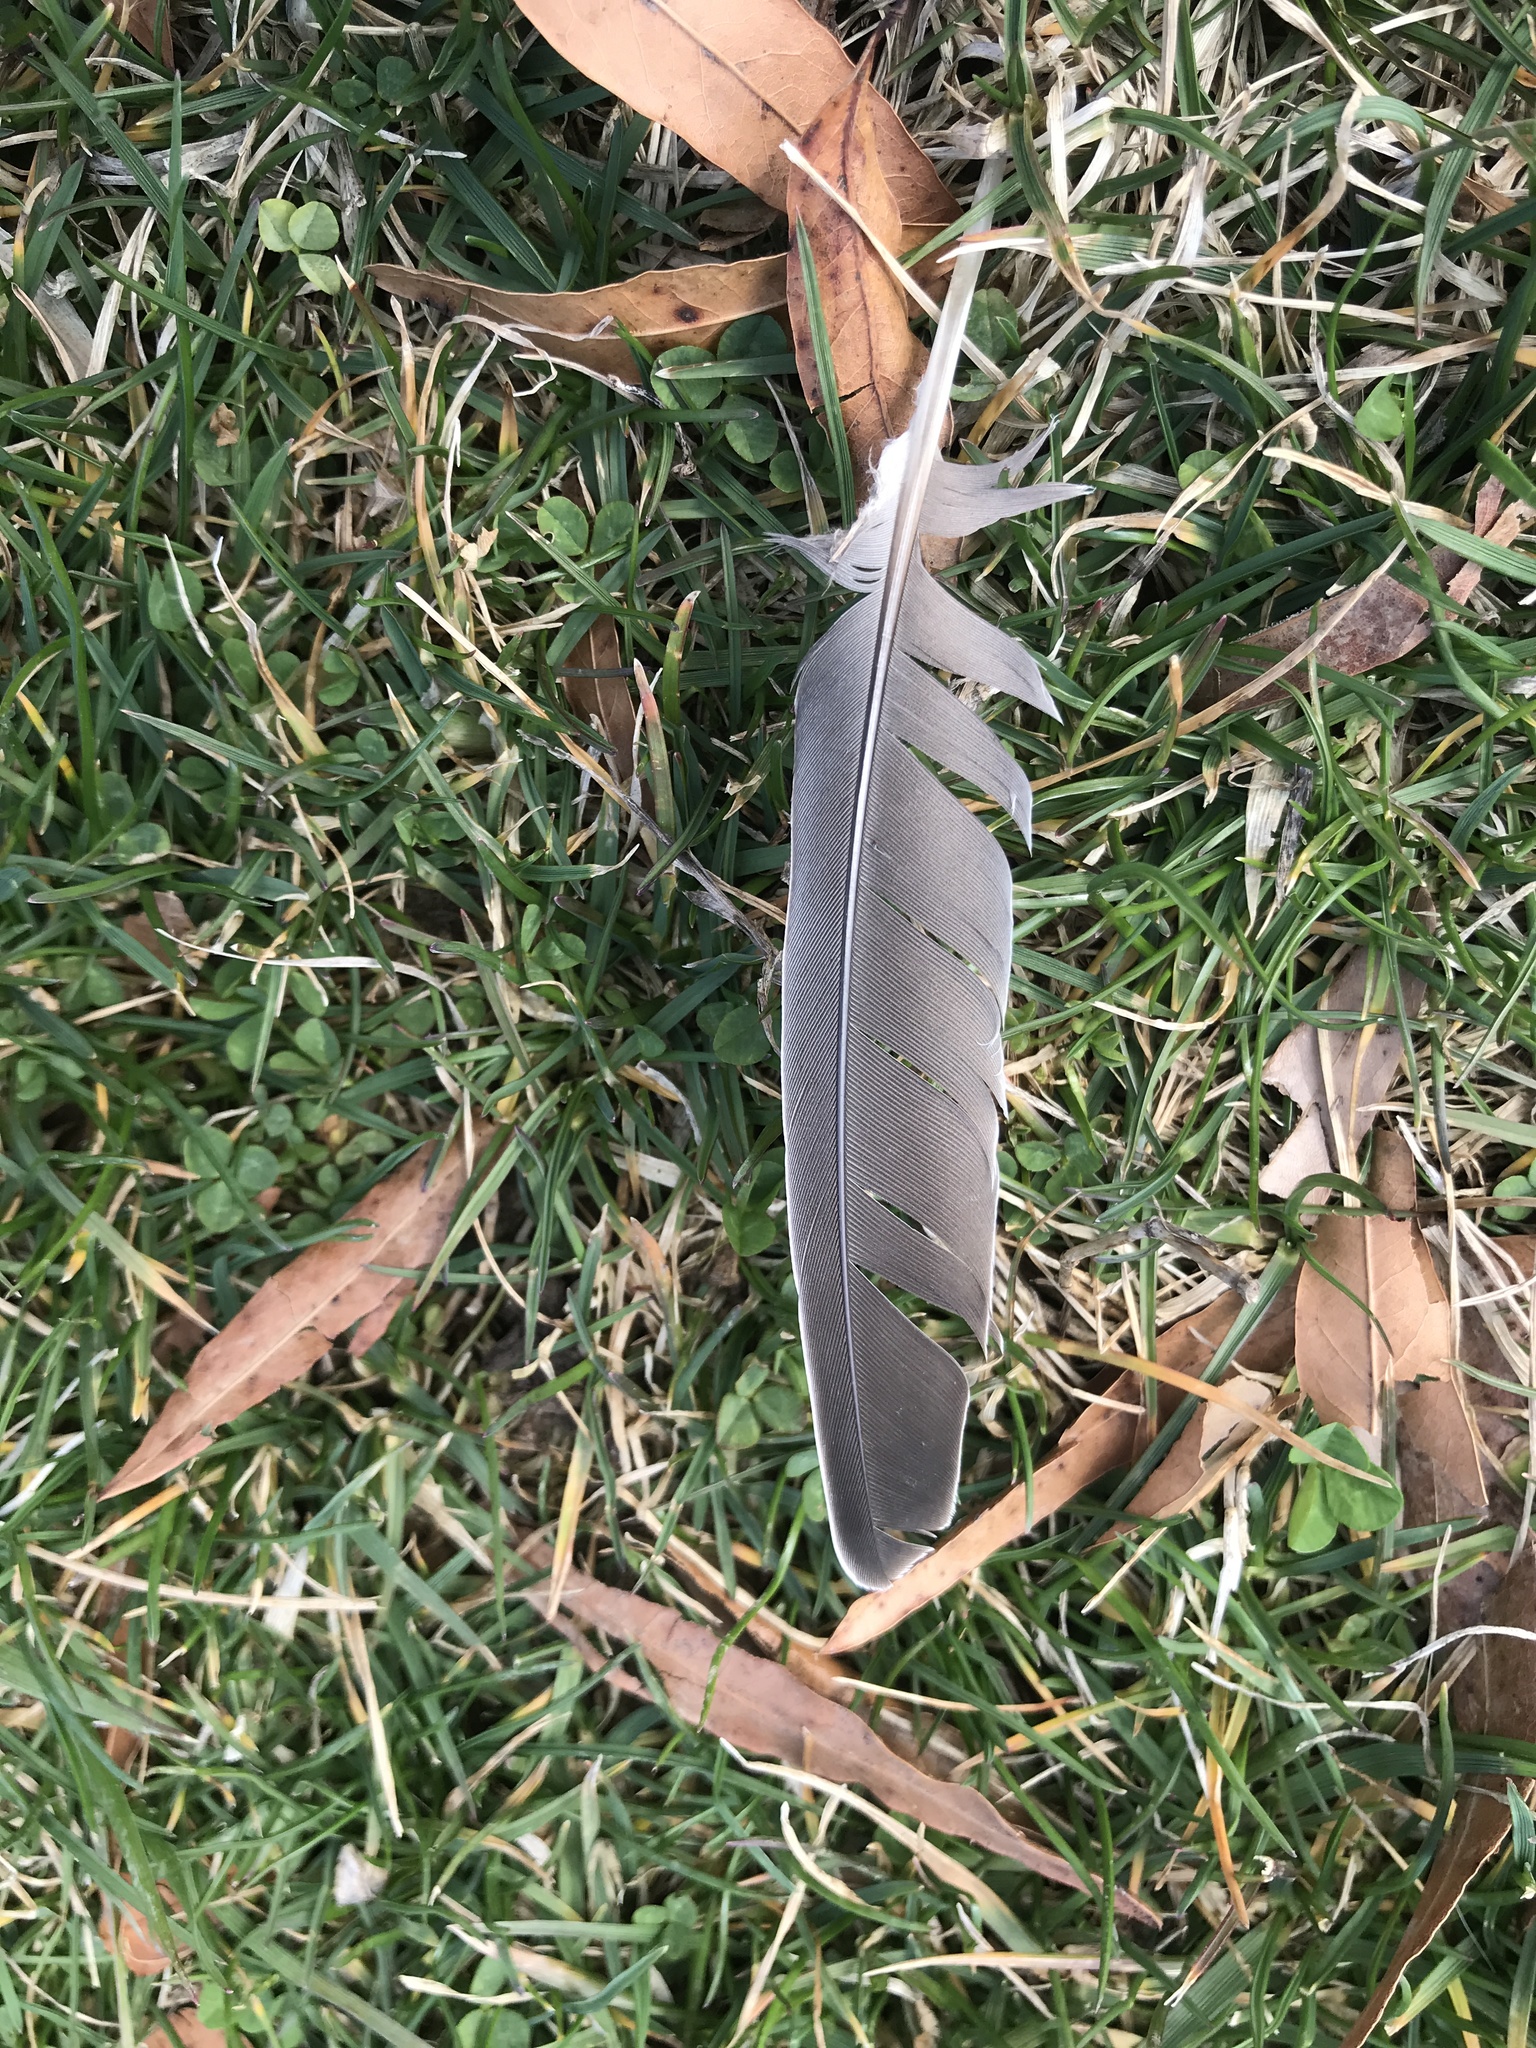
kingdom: Animalia
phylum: Chordata
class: Aves
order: Columbiformes
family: Columbidae
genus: Zenaida
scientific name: Zenaida macroura
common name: Mourning dove
